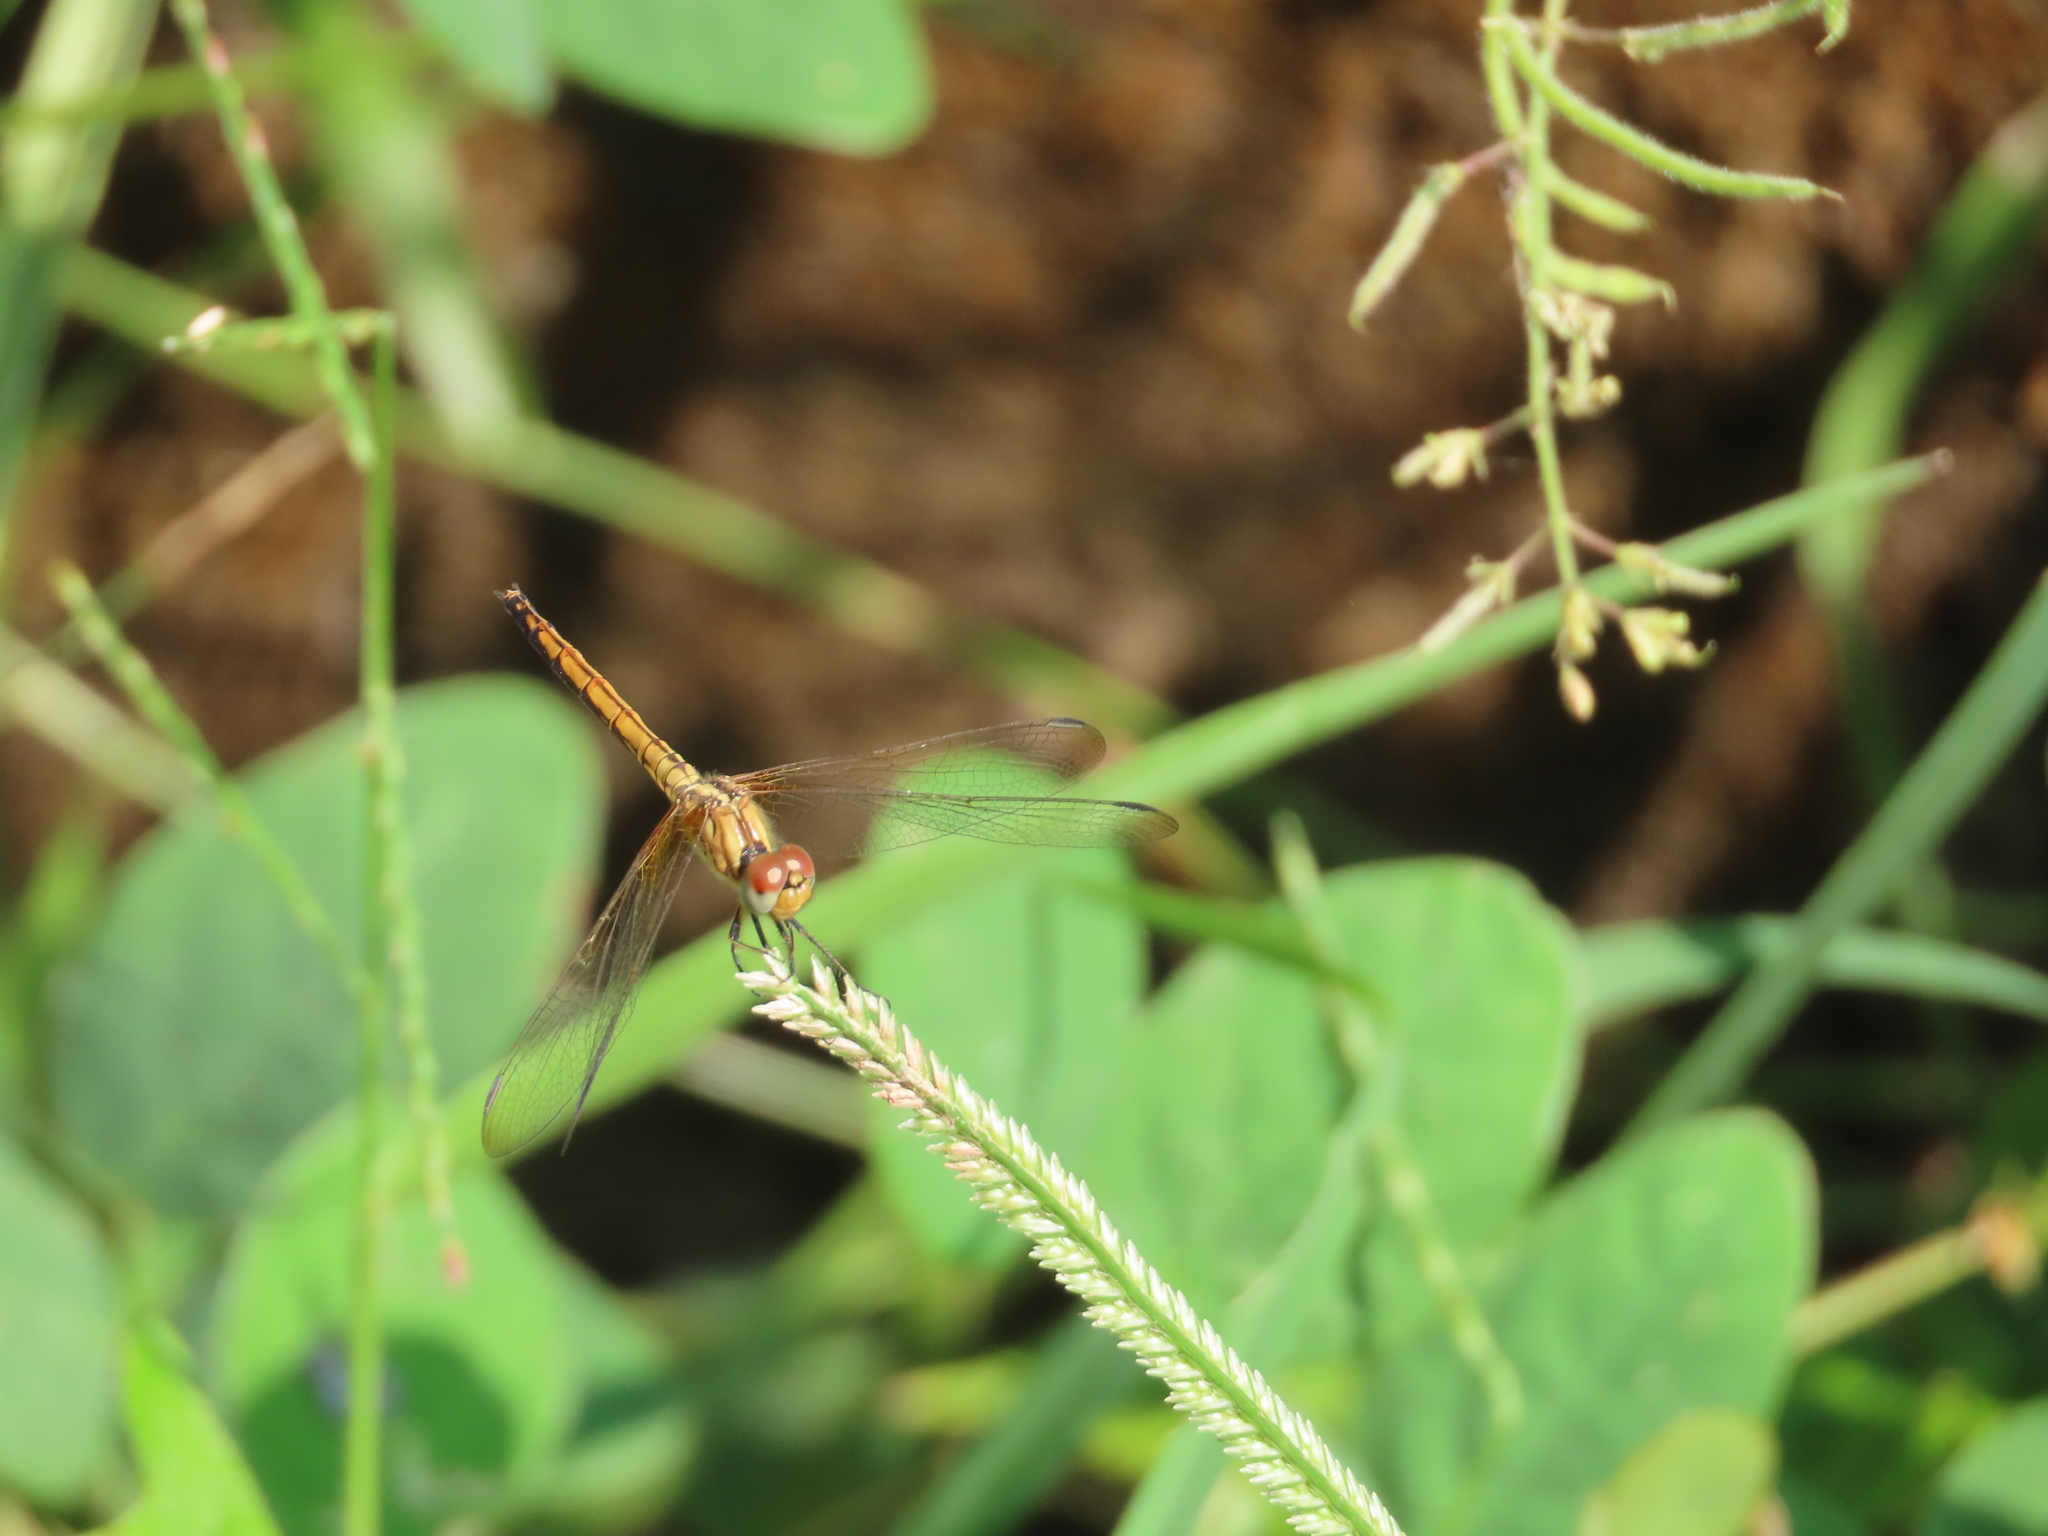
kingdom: Animalia
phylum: Arthropoda
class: Insecta
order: Odonata
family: Libellulidae
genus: Trithemis
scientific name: Trithemis aurora
